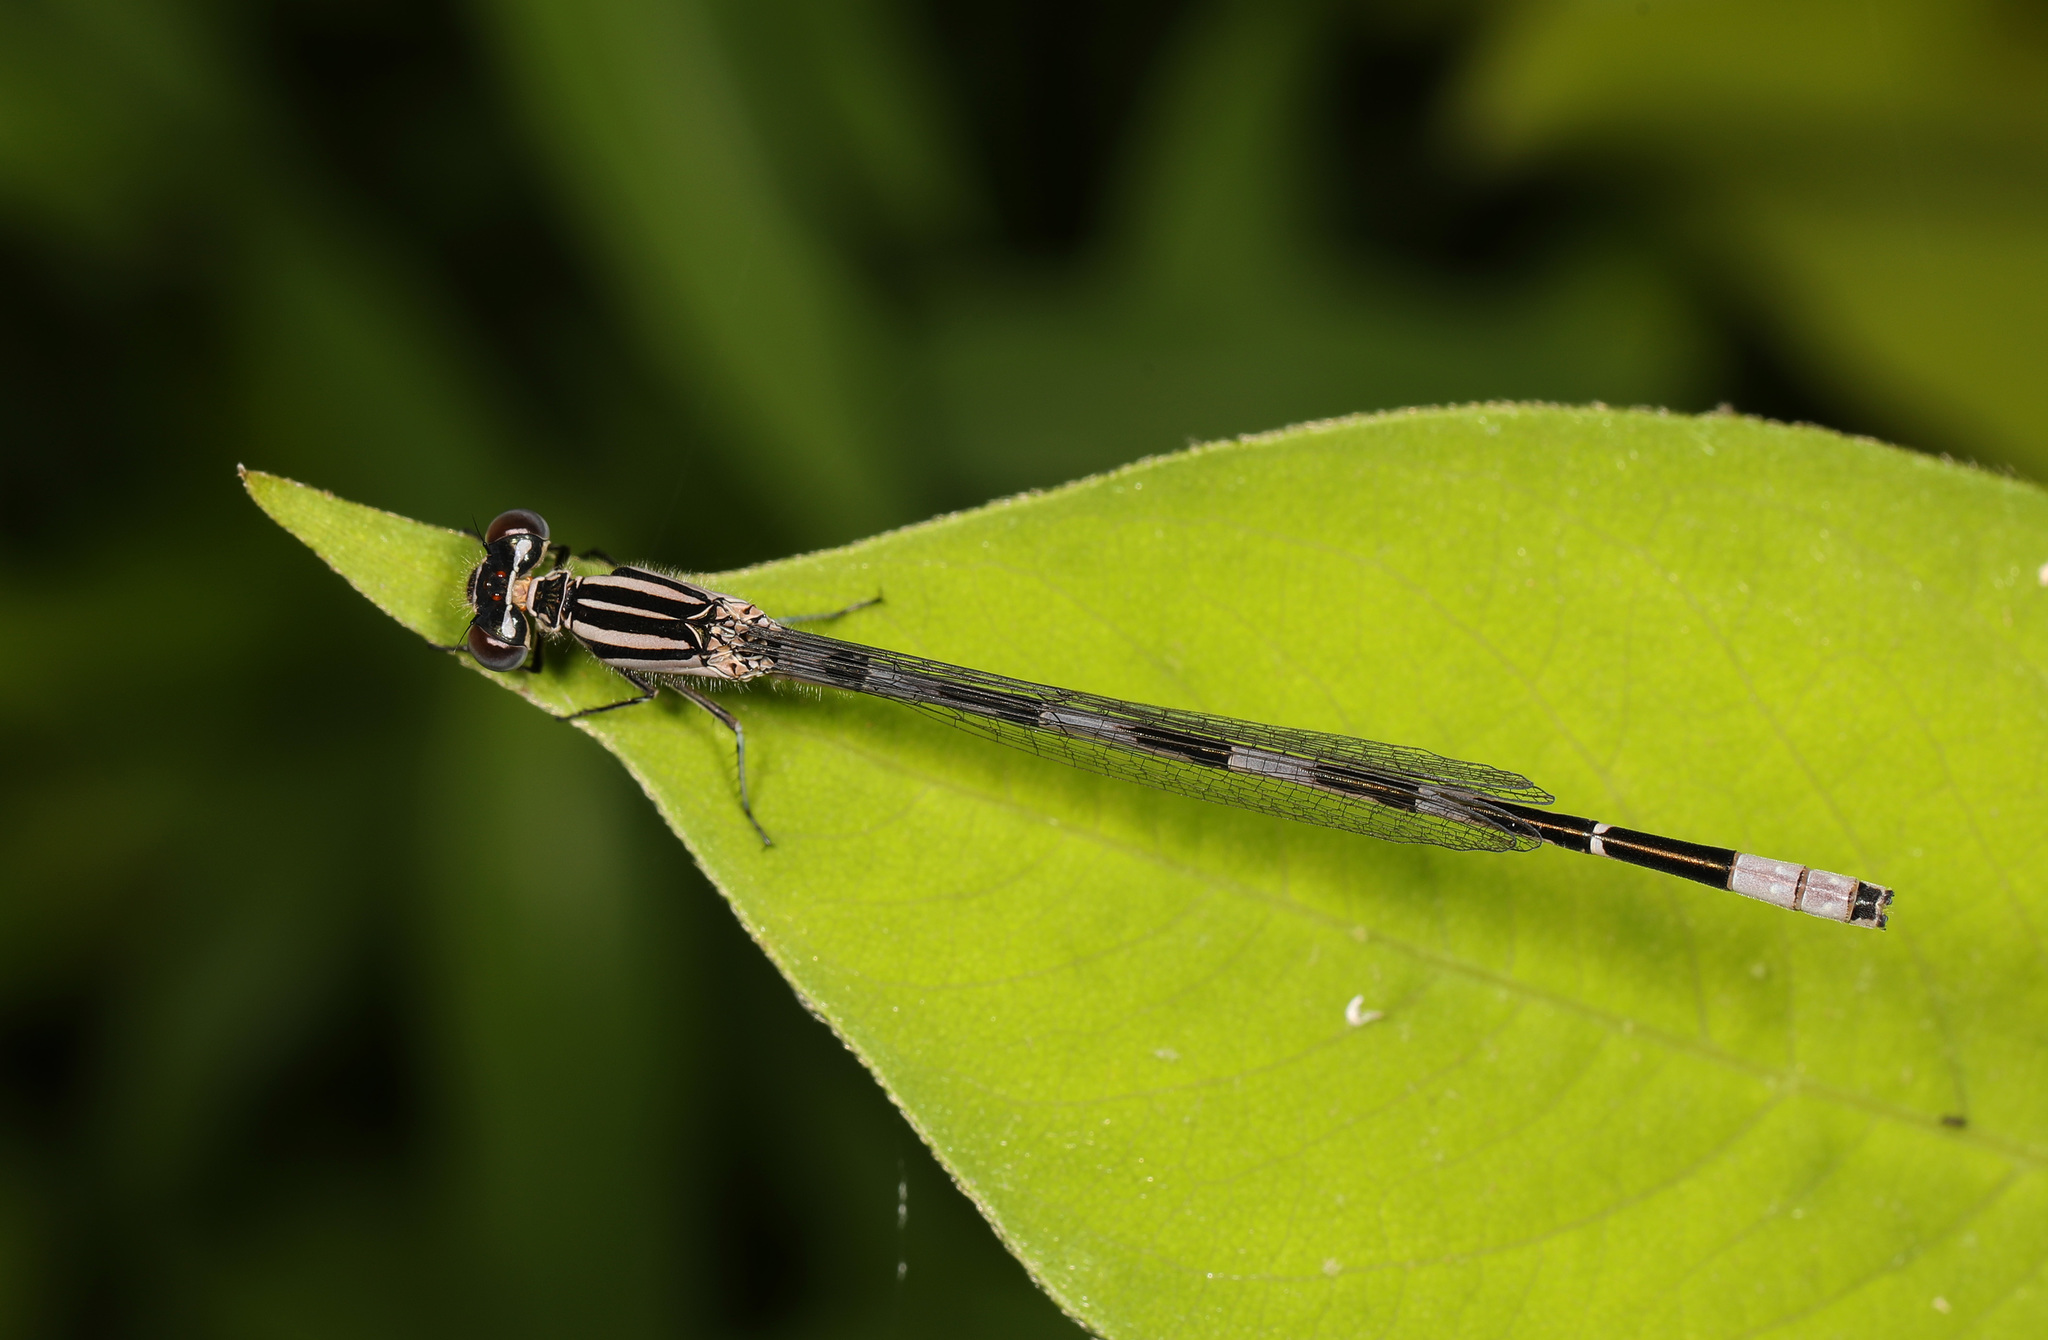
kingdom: Animalia
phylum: Arthropoda
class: Insecta
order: Odonata
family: Coenagrionidae
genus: Enallagma
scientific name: Enallagma durum
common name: Big bluet
